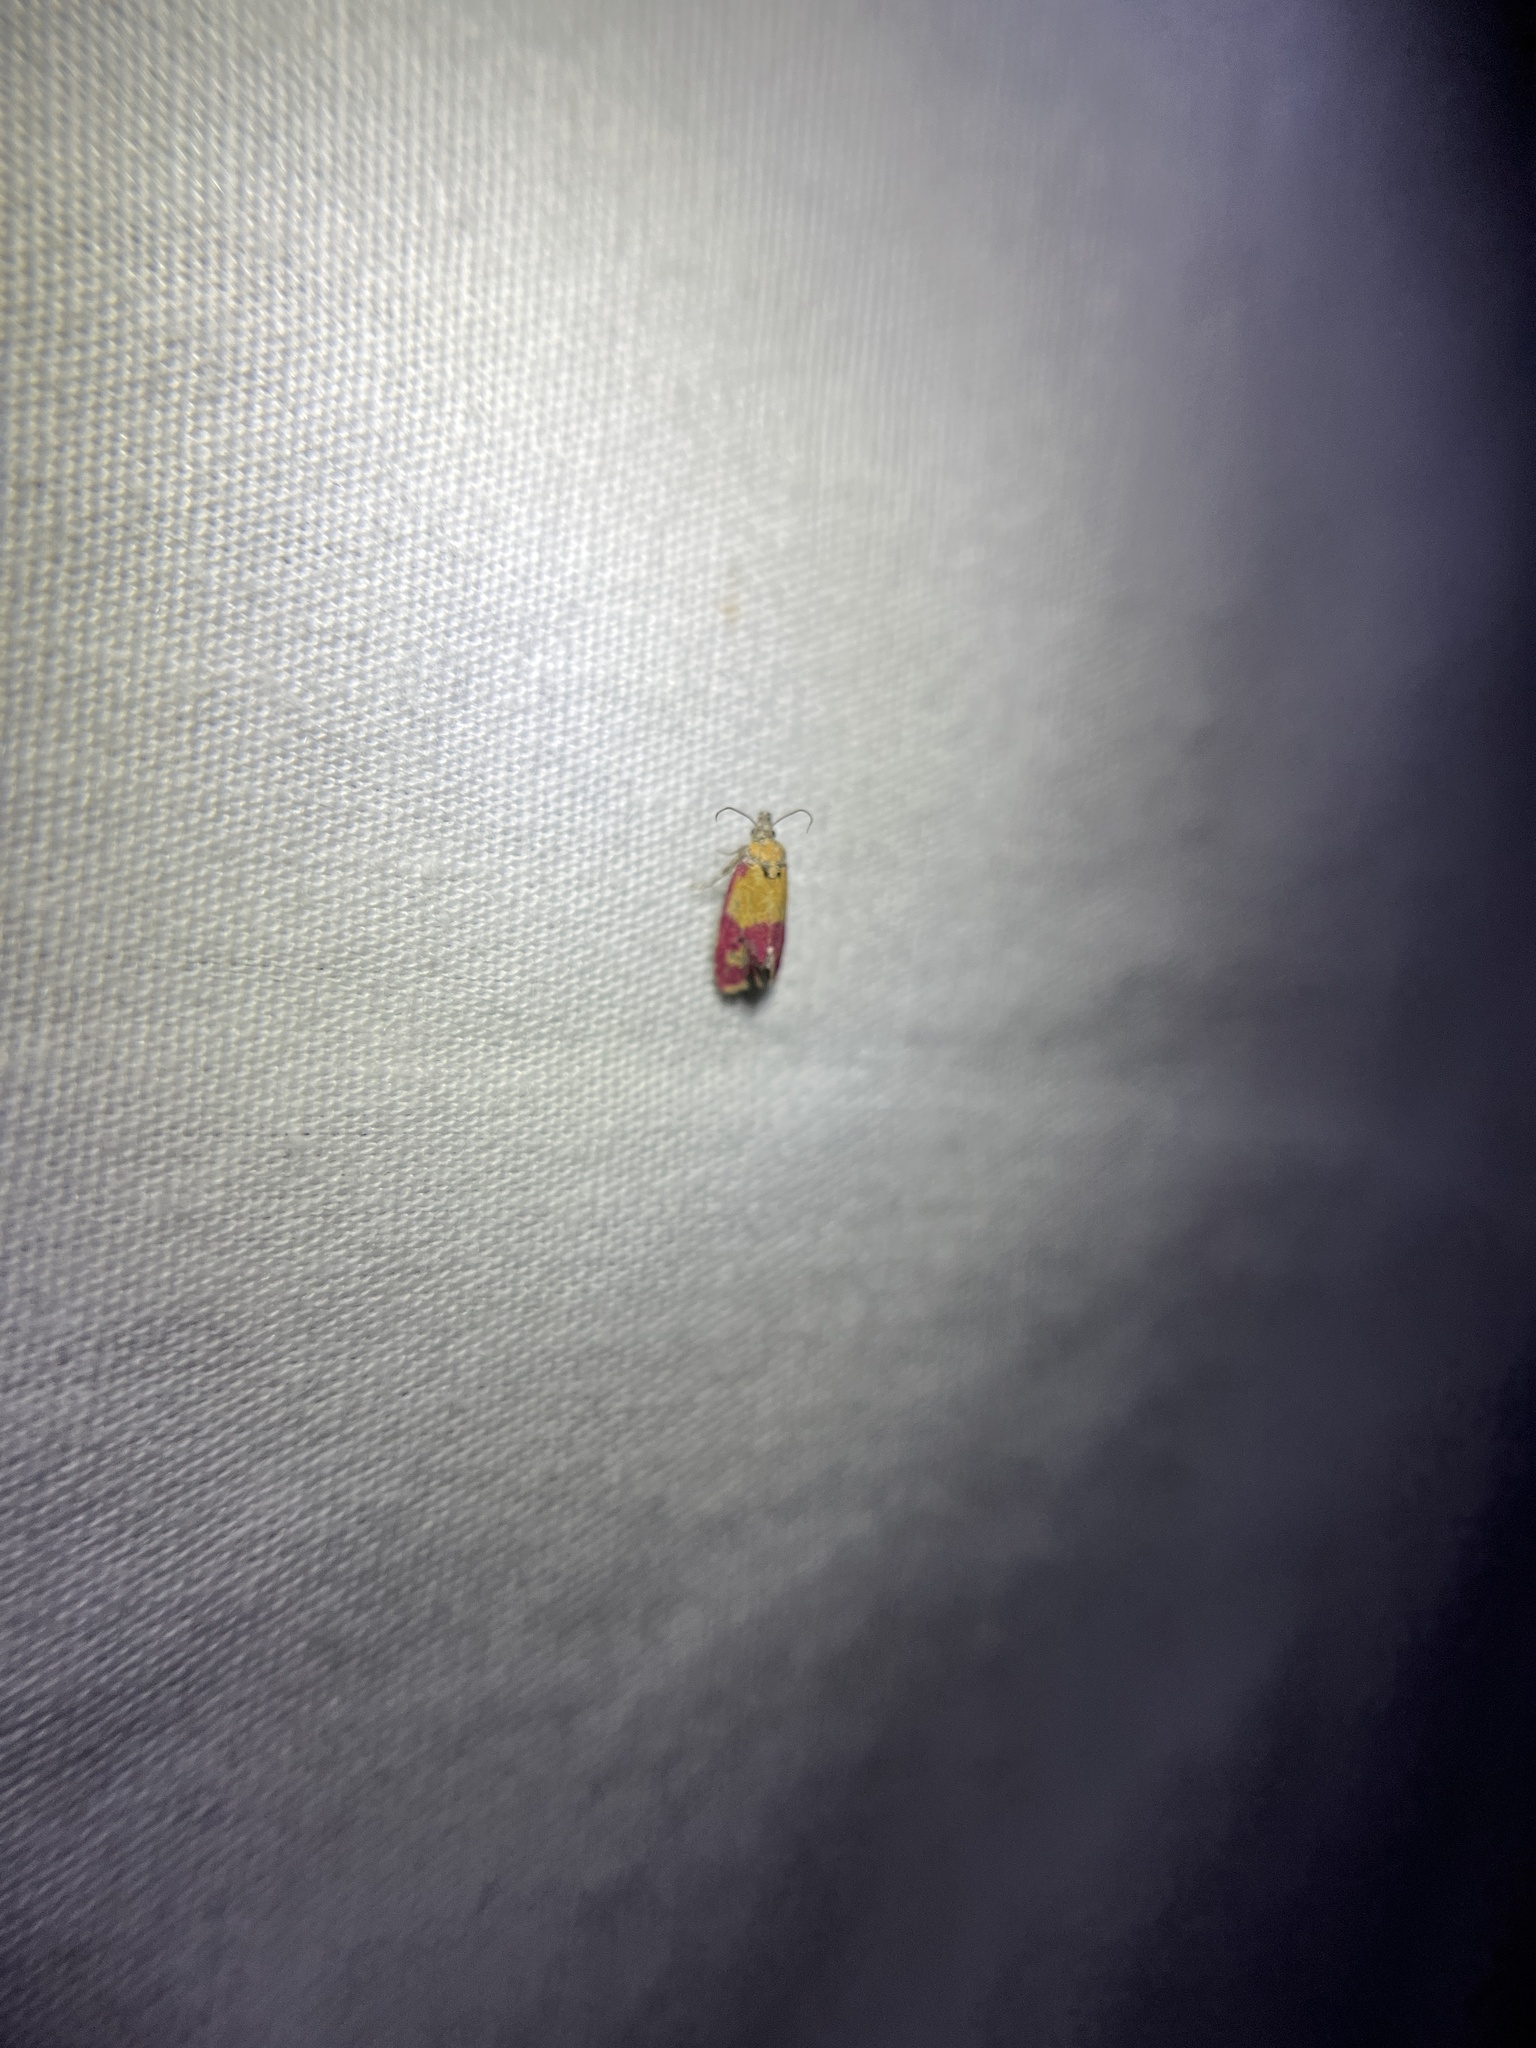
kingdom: Animalia
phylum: Arthropoda
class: Insecta
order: Lepidoptera
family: Tortricidae
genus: Conchylis
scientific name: Conchylis oenotherana
